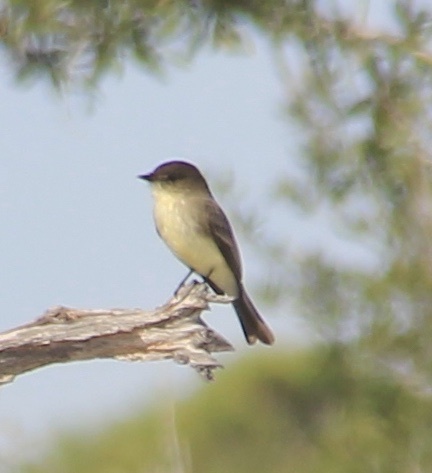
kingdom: Animalia
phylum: Chordata
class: Aves
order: Passeriformes
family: Tyrannidae
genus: Sayornis
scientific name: Sayornis phoebe
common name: Eastern phoebe
